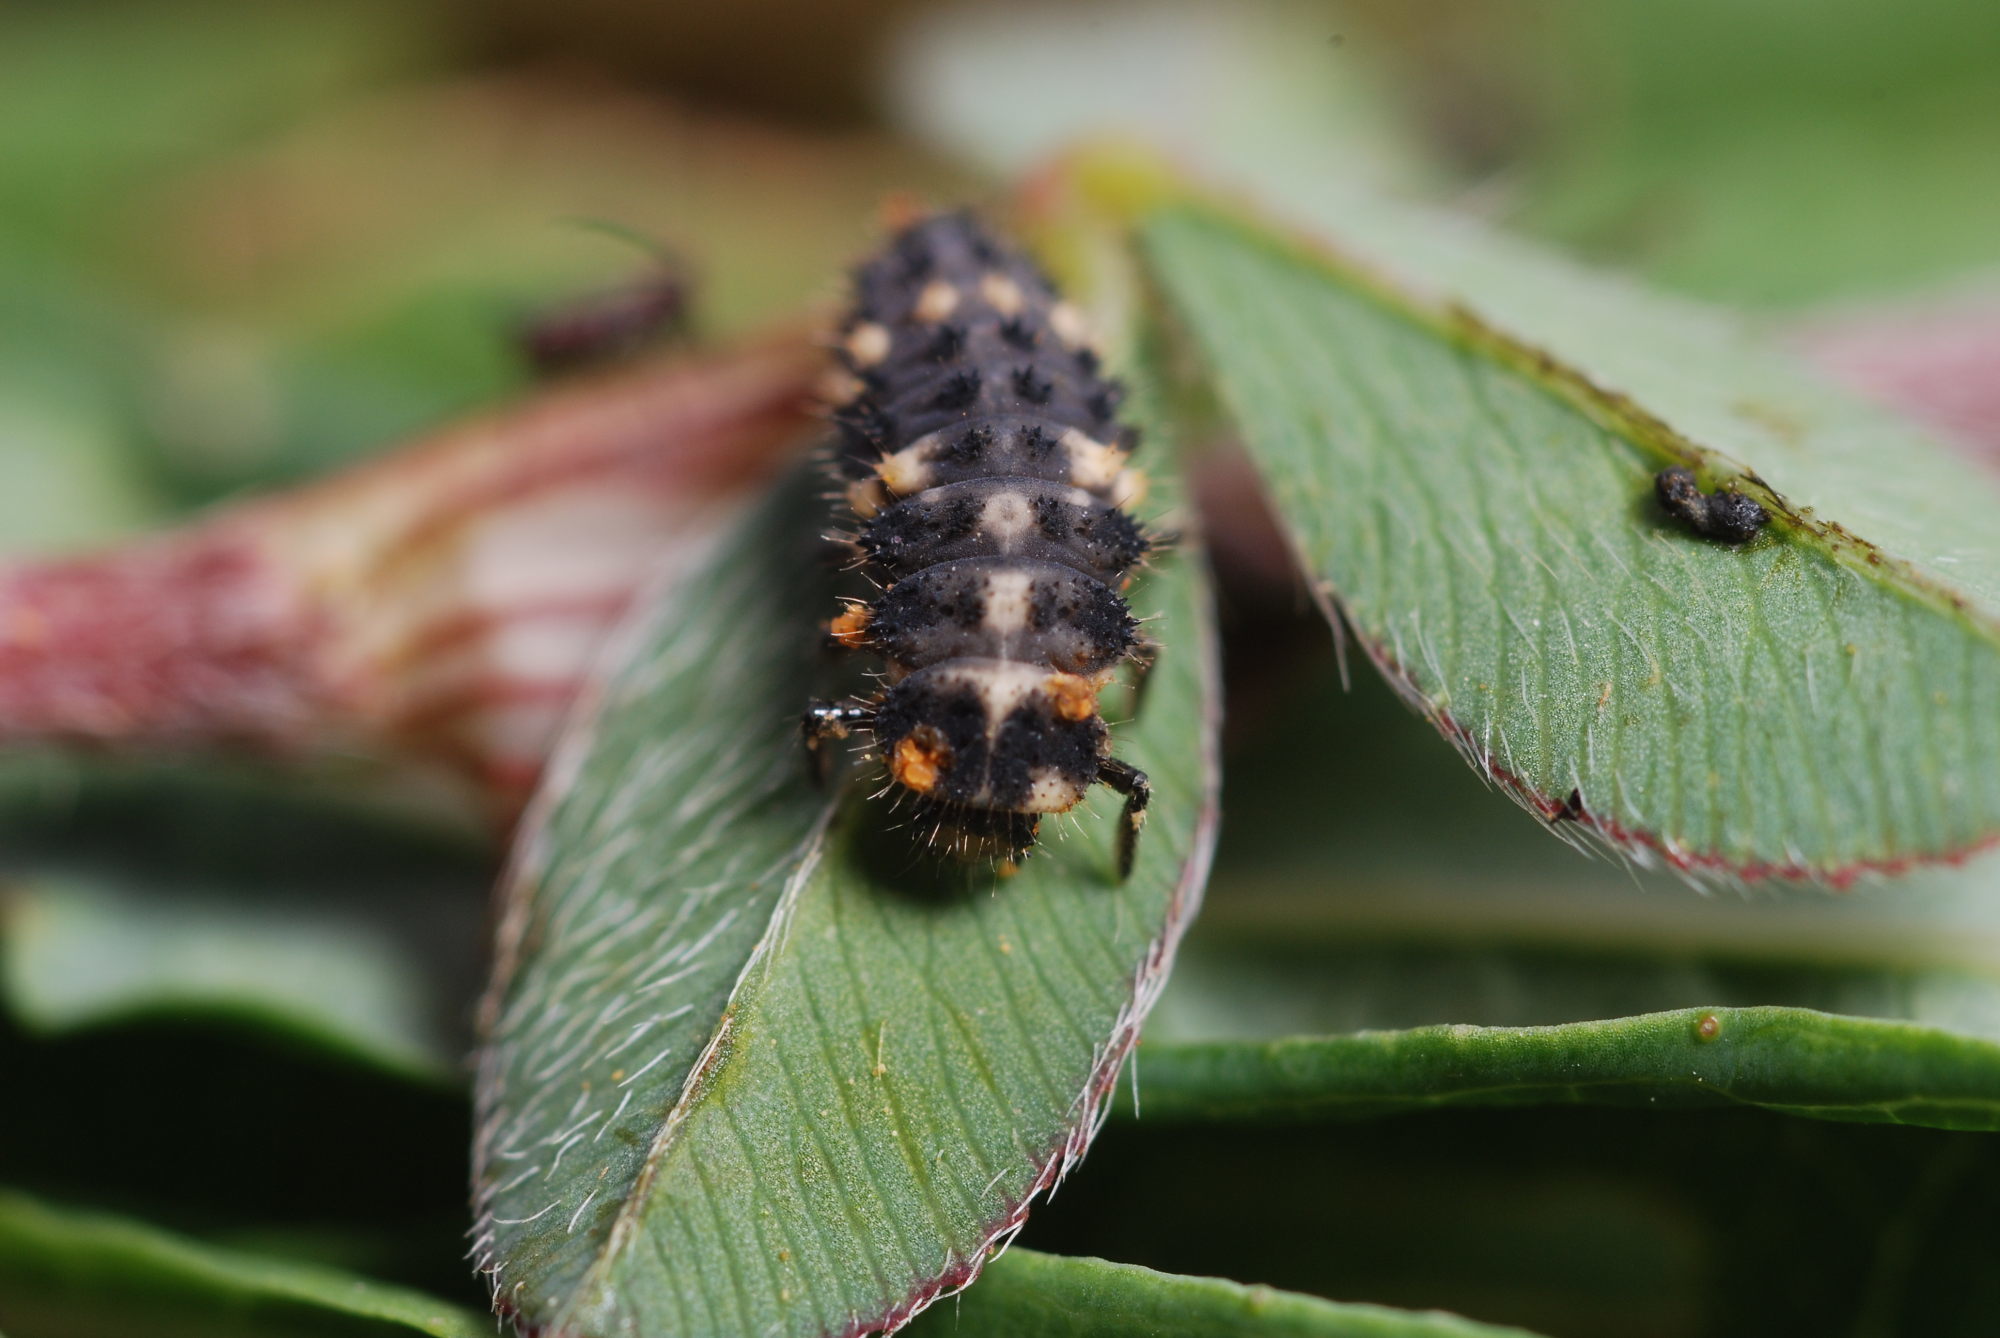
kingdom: Animalia
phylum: Arthropoda
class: Insecta
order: Coleoptera
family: Coccinellidae
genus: Ceratomegilla
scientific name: Ceratomegilla alpina
